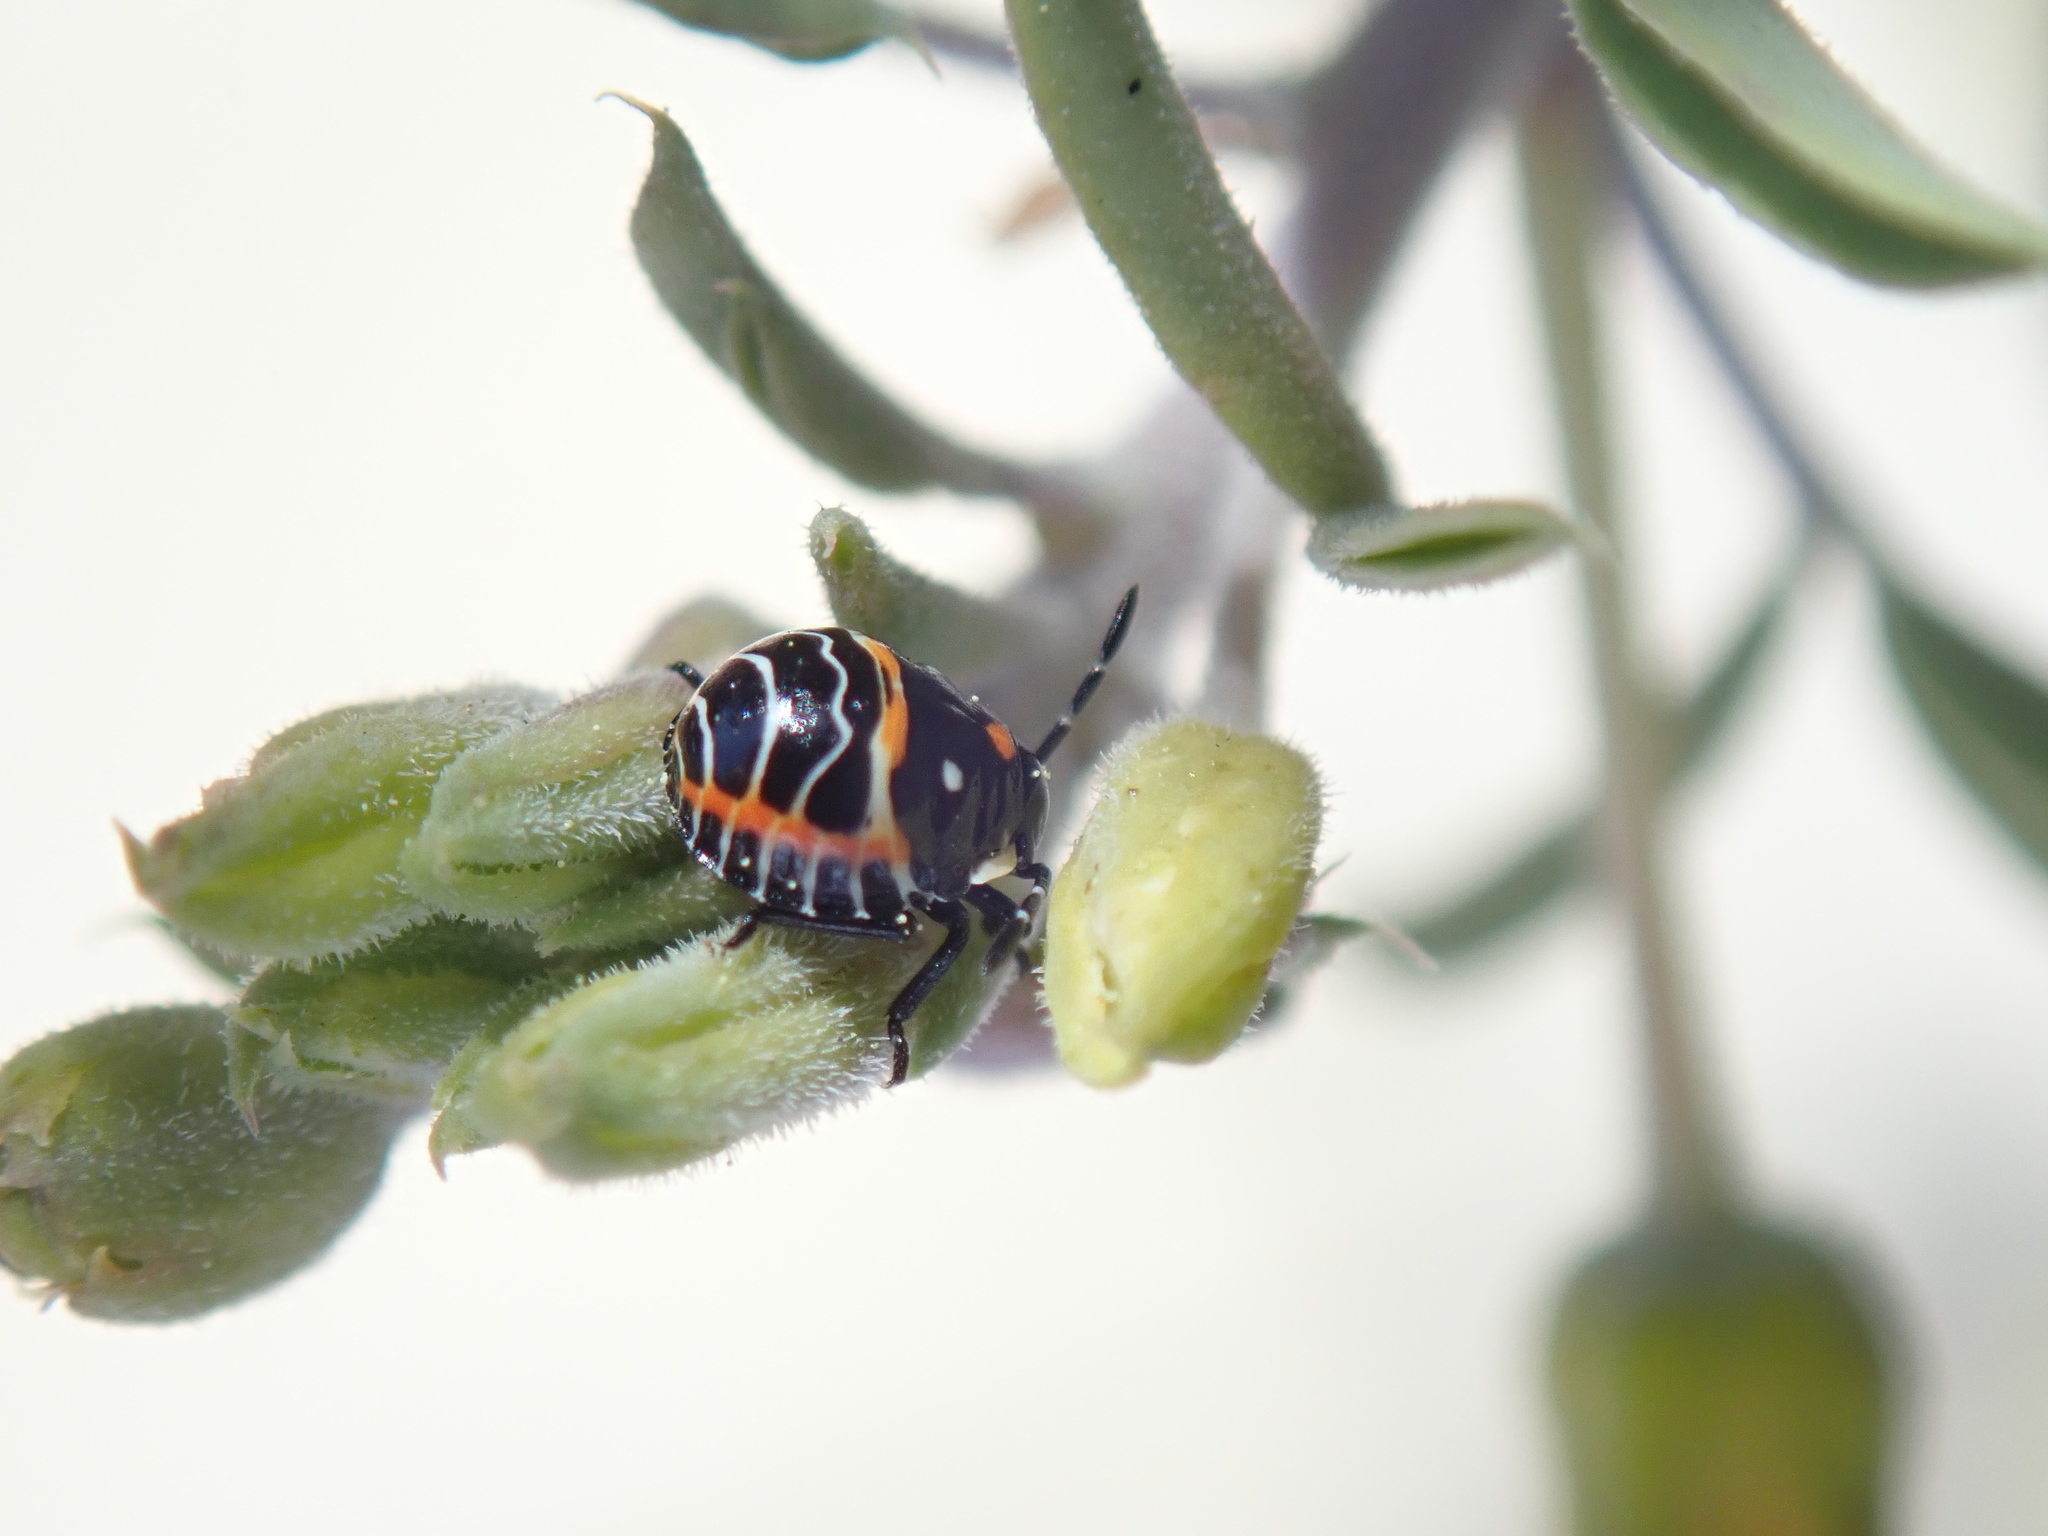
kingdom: Animalia
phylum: Arthropoda
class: Insecta
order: Hemiptera
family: Pentatomidae
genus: Murgantia
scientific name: Murgantia histrionica
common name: Harlequin bug
